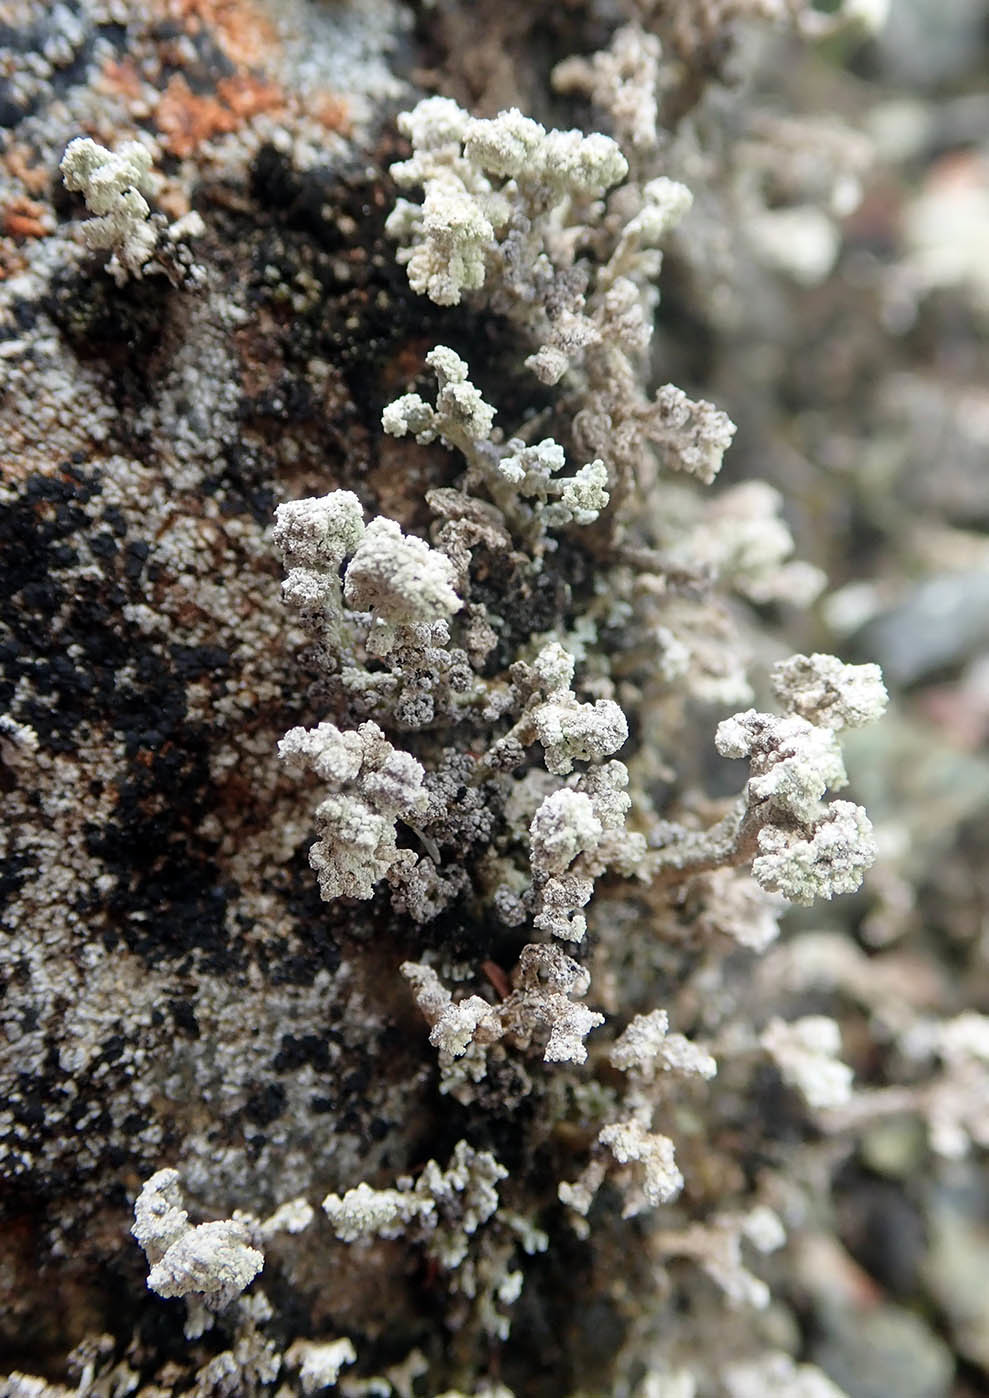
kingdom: Fungi
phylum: Ascomycota
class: Lecanoromycetes
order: Lecanorales
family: Stereocaulaceae
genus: Stereocaulon
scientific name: Stereocaulon corticatulum
